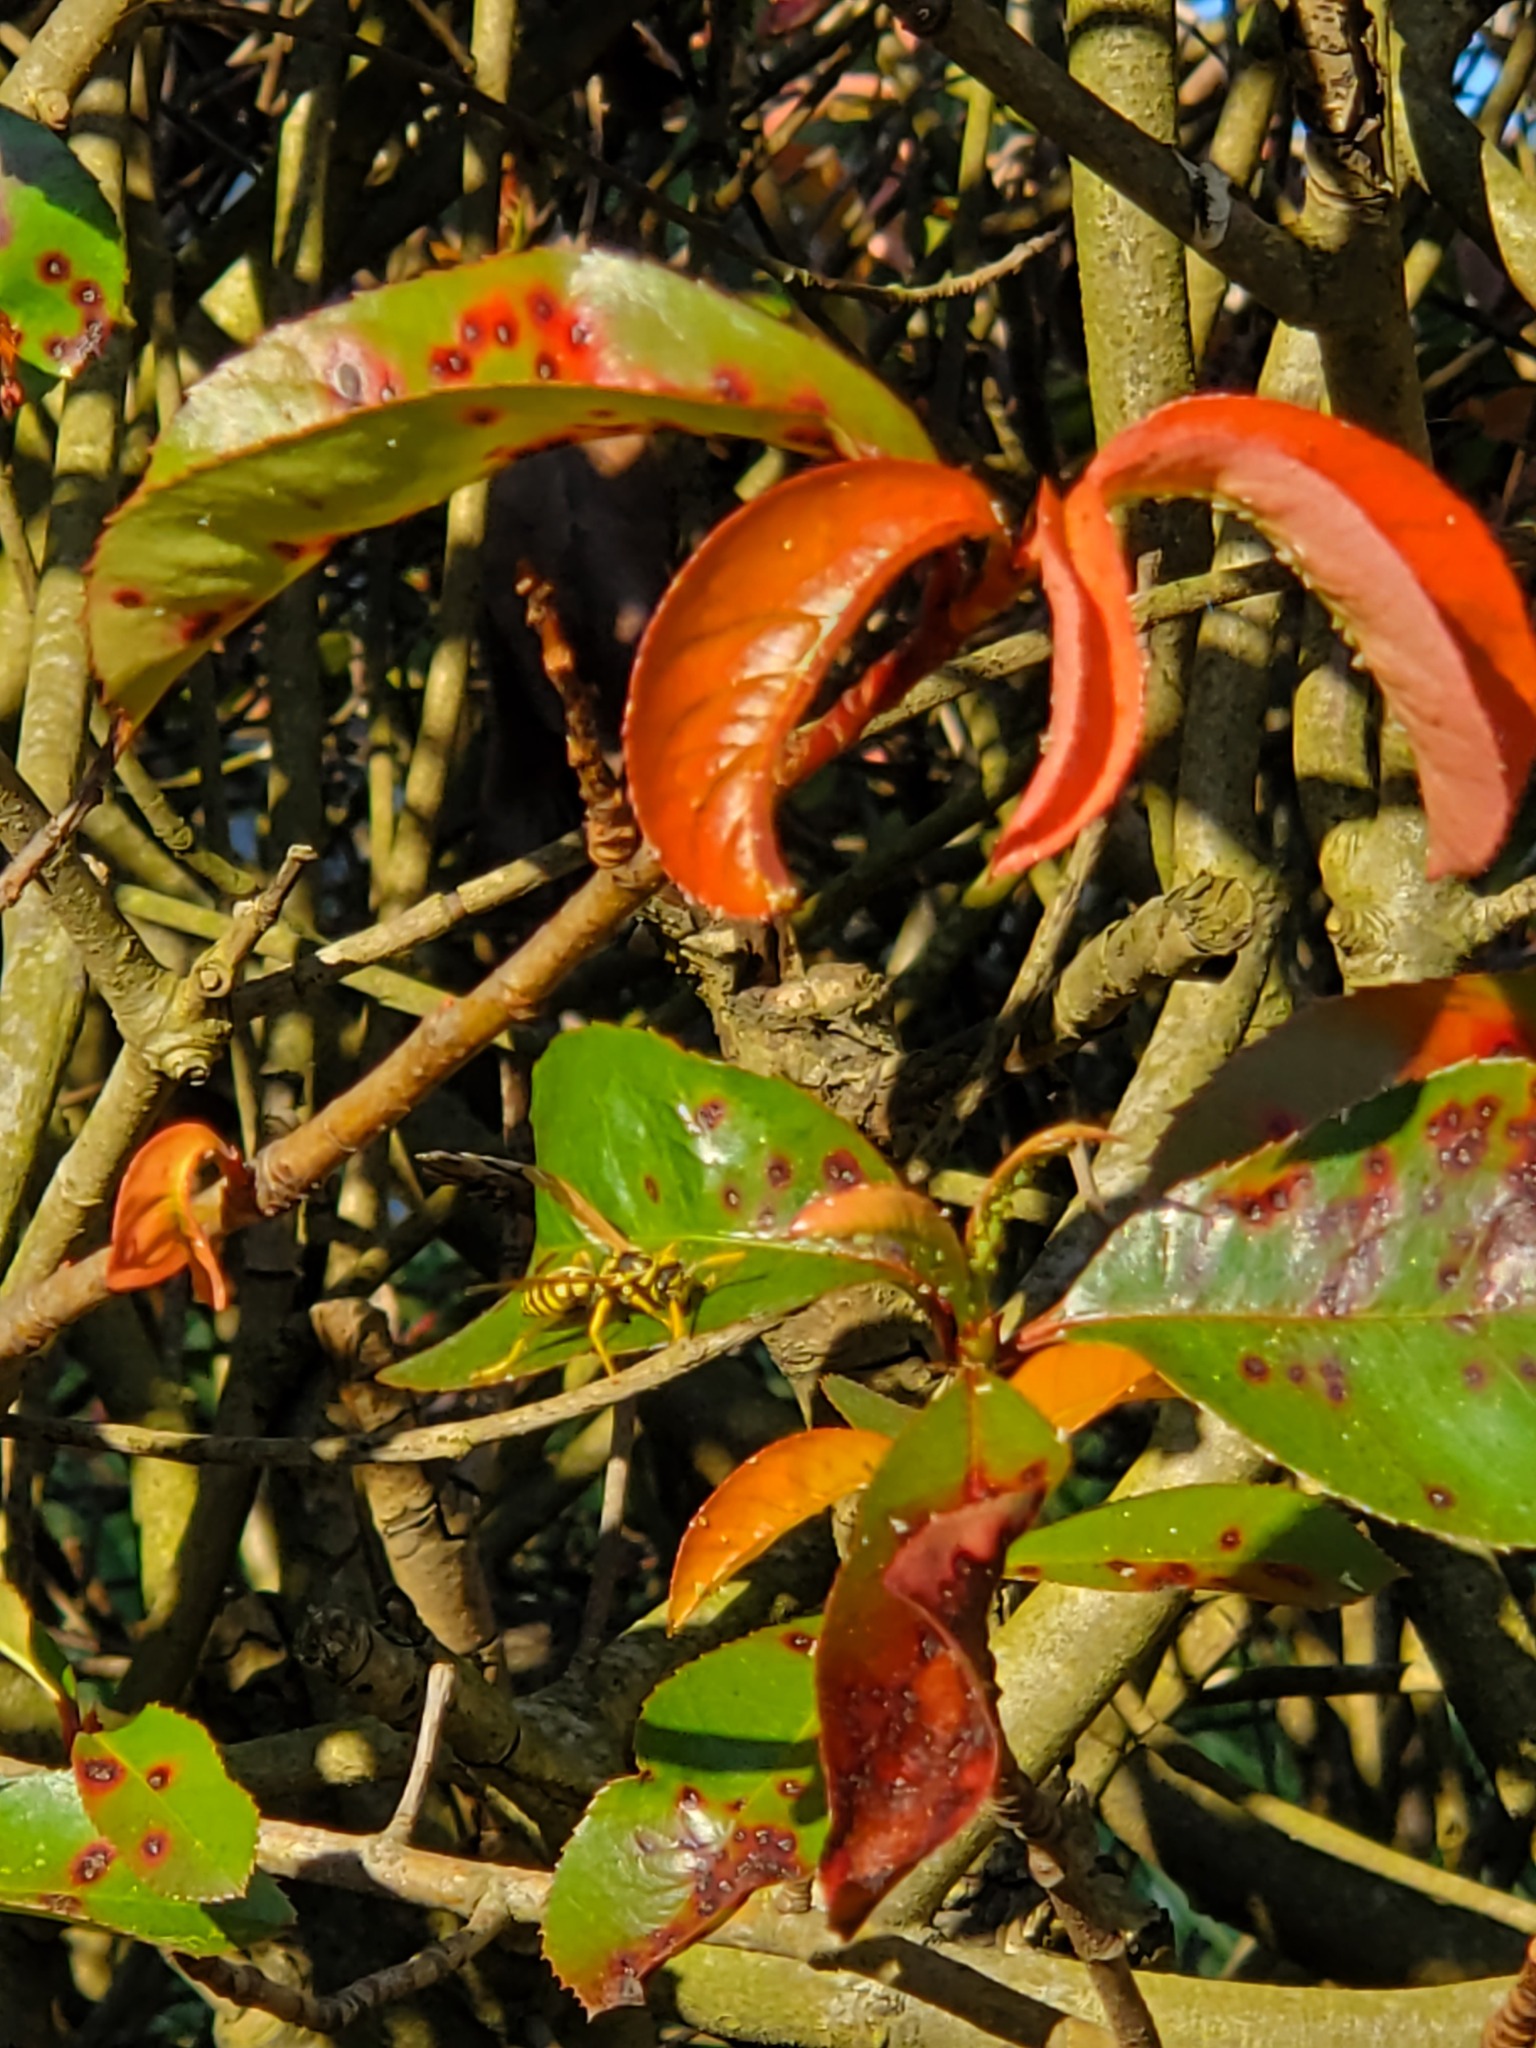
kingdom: Animalia
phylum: Arthropoda
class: Insecta
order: Hymenoptera
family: Eumenidae
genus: Polistes
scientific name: Polistes dominula
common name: Paper wasp
